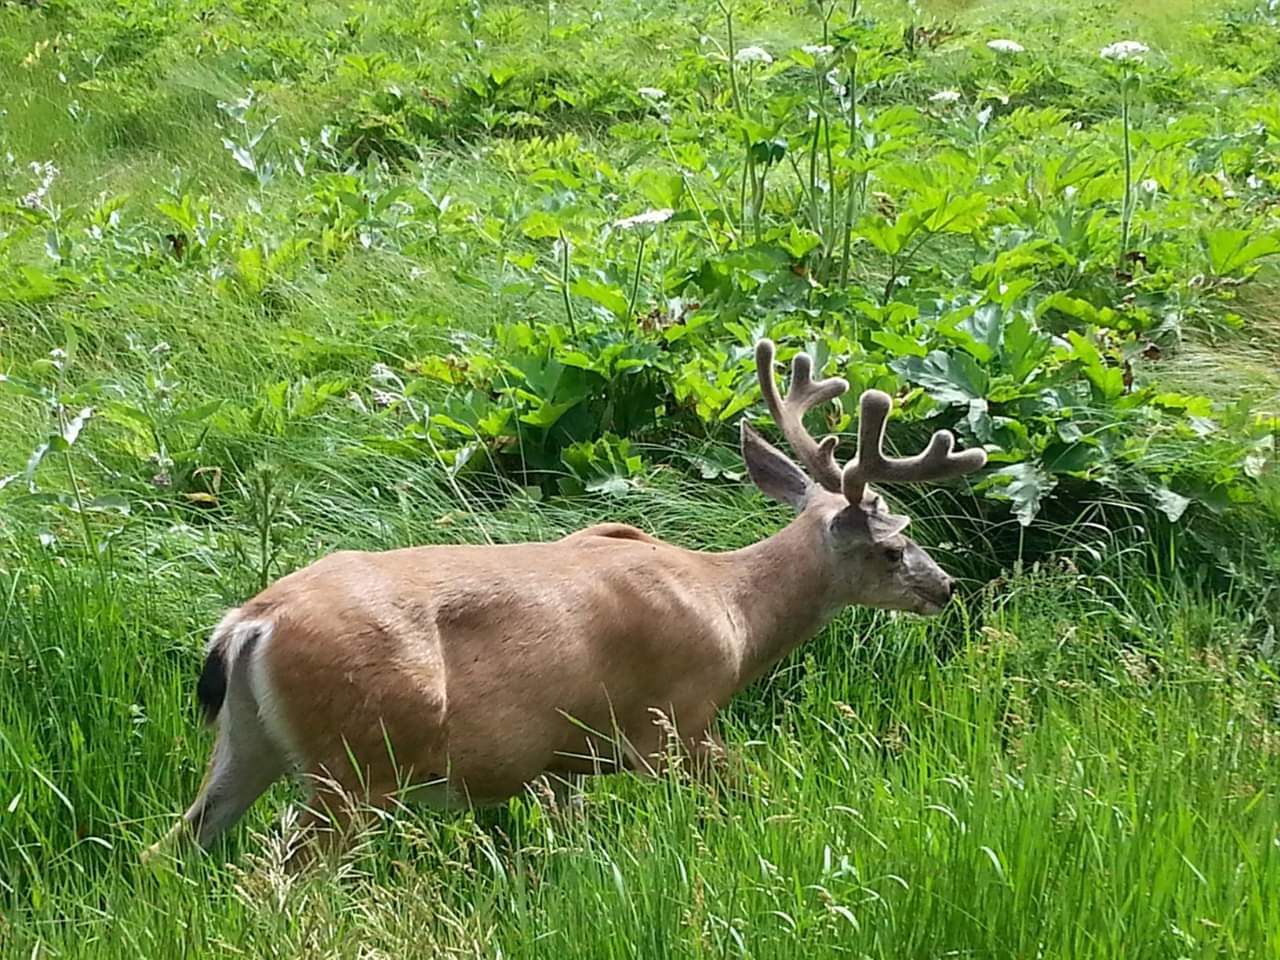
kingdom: Animalia
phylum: Chordata
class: Mammalia
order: Artiodactyla
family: Cervidae
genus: Odocoileus
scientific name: Odocoileus hemionus
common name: Mule deer
